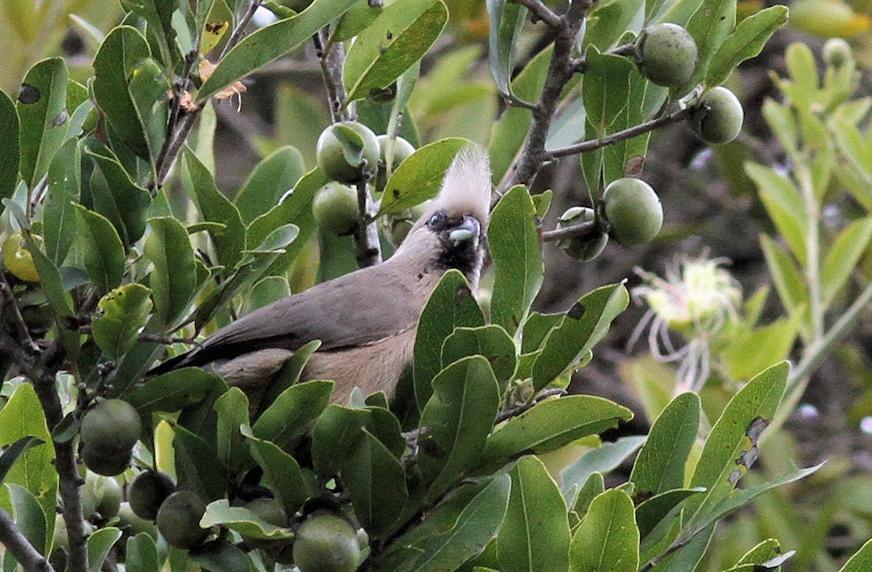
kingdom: Animalia
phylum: Chordata
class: Aves
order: Coliiformes
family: Coliidae
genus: Colius
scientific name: Colius striatus
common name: Speckled mousebird
